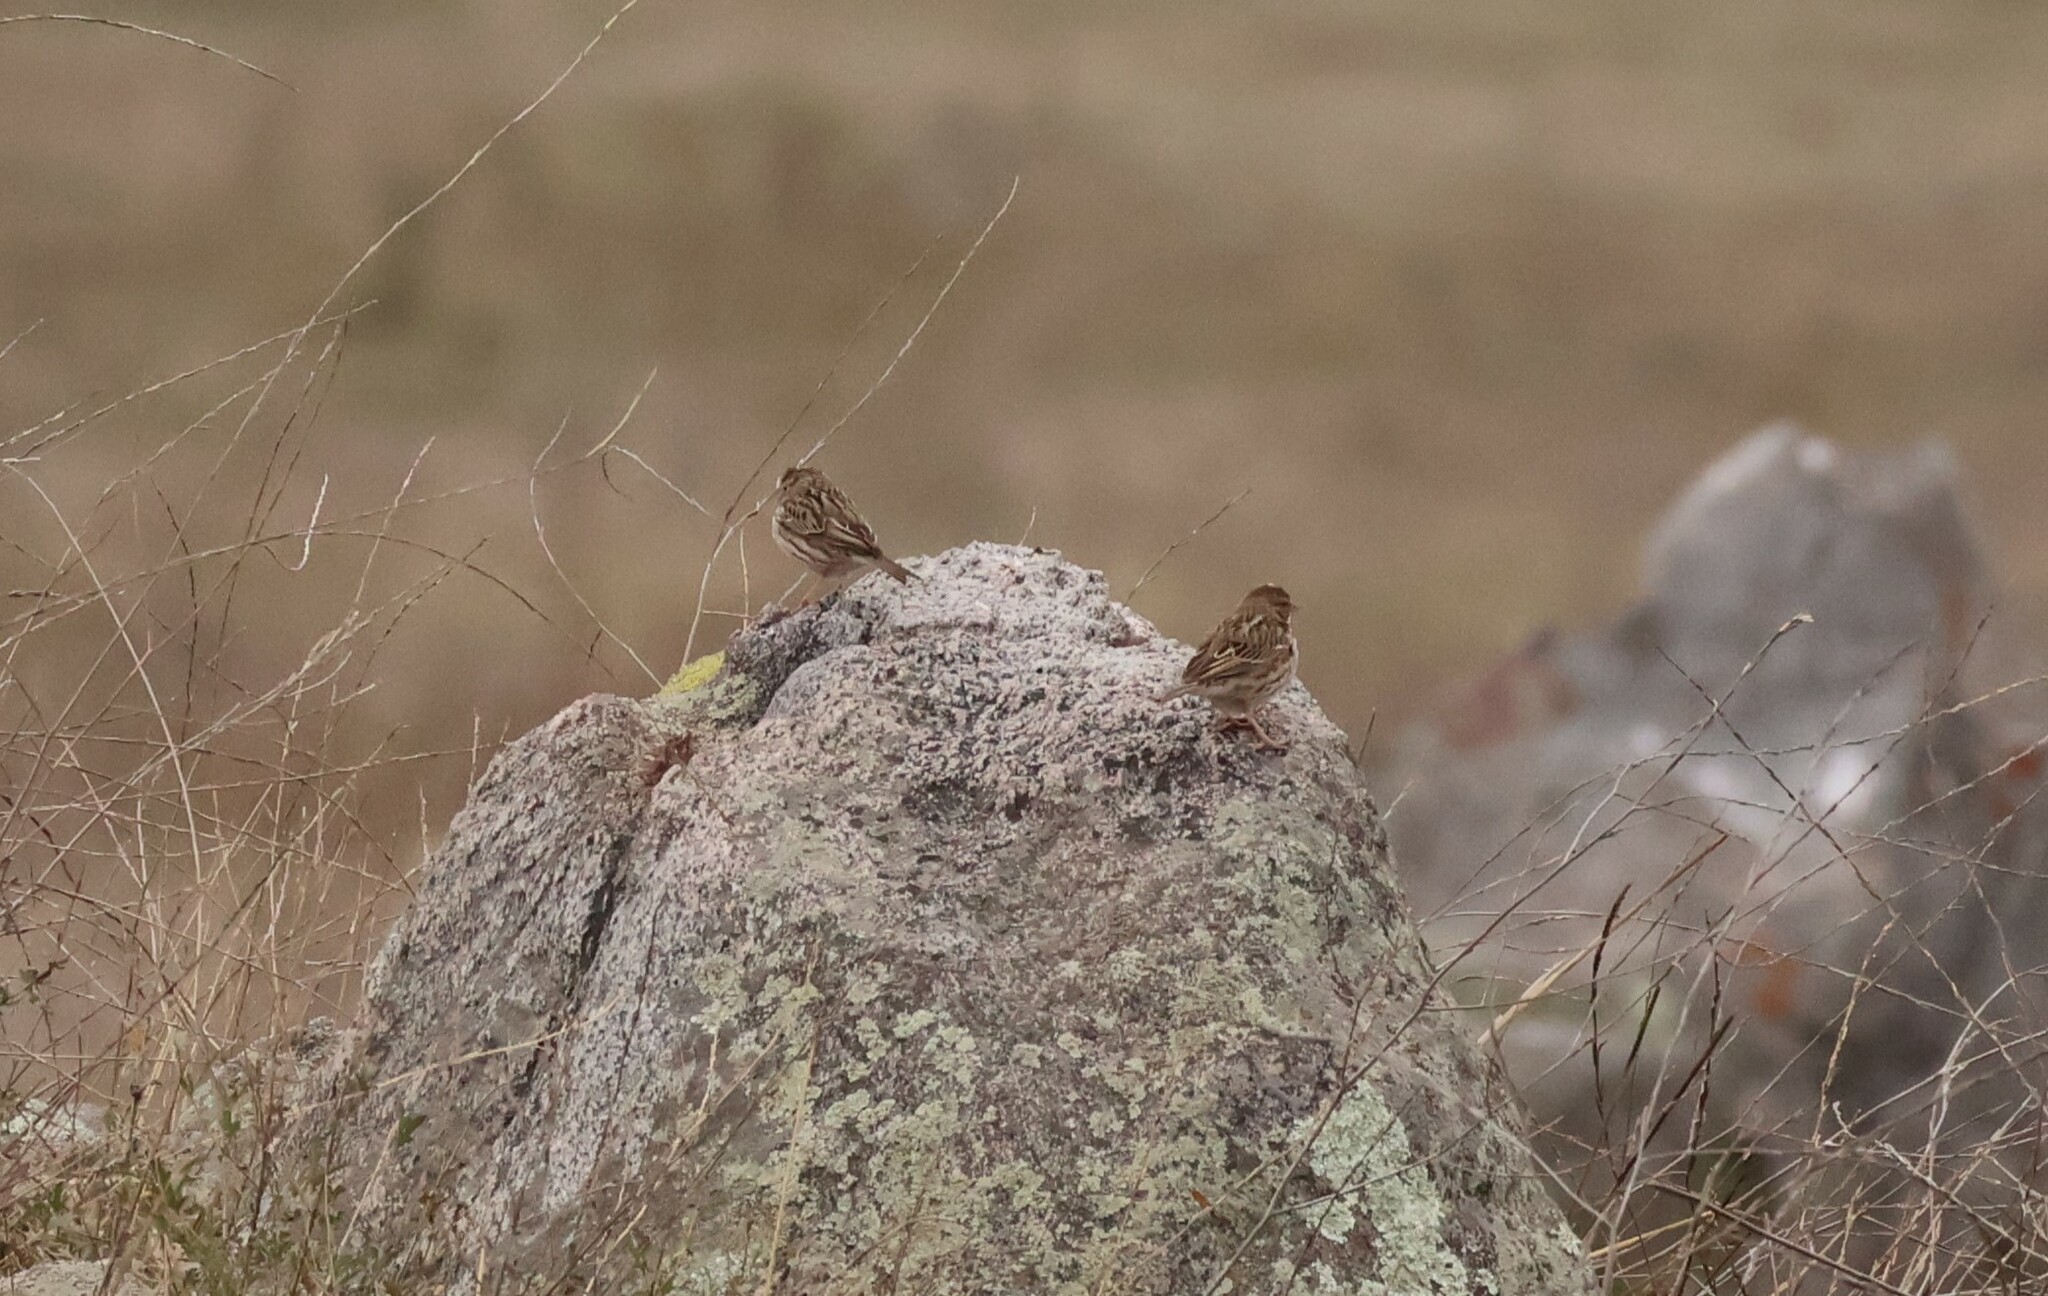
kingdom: Animalia
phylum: Chordata
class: Aves
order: Passeriformes
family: Passerellidae
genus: Passerculus
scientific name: Passerculus sandwichensis
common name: Savannah sparrow
